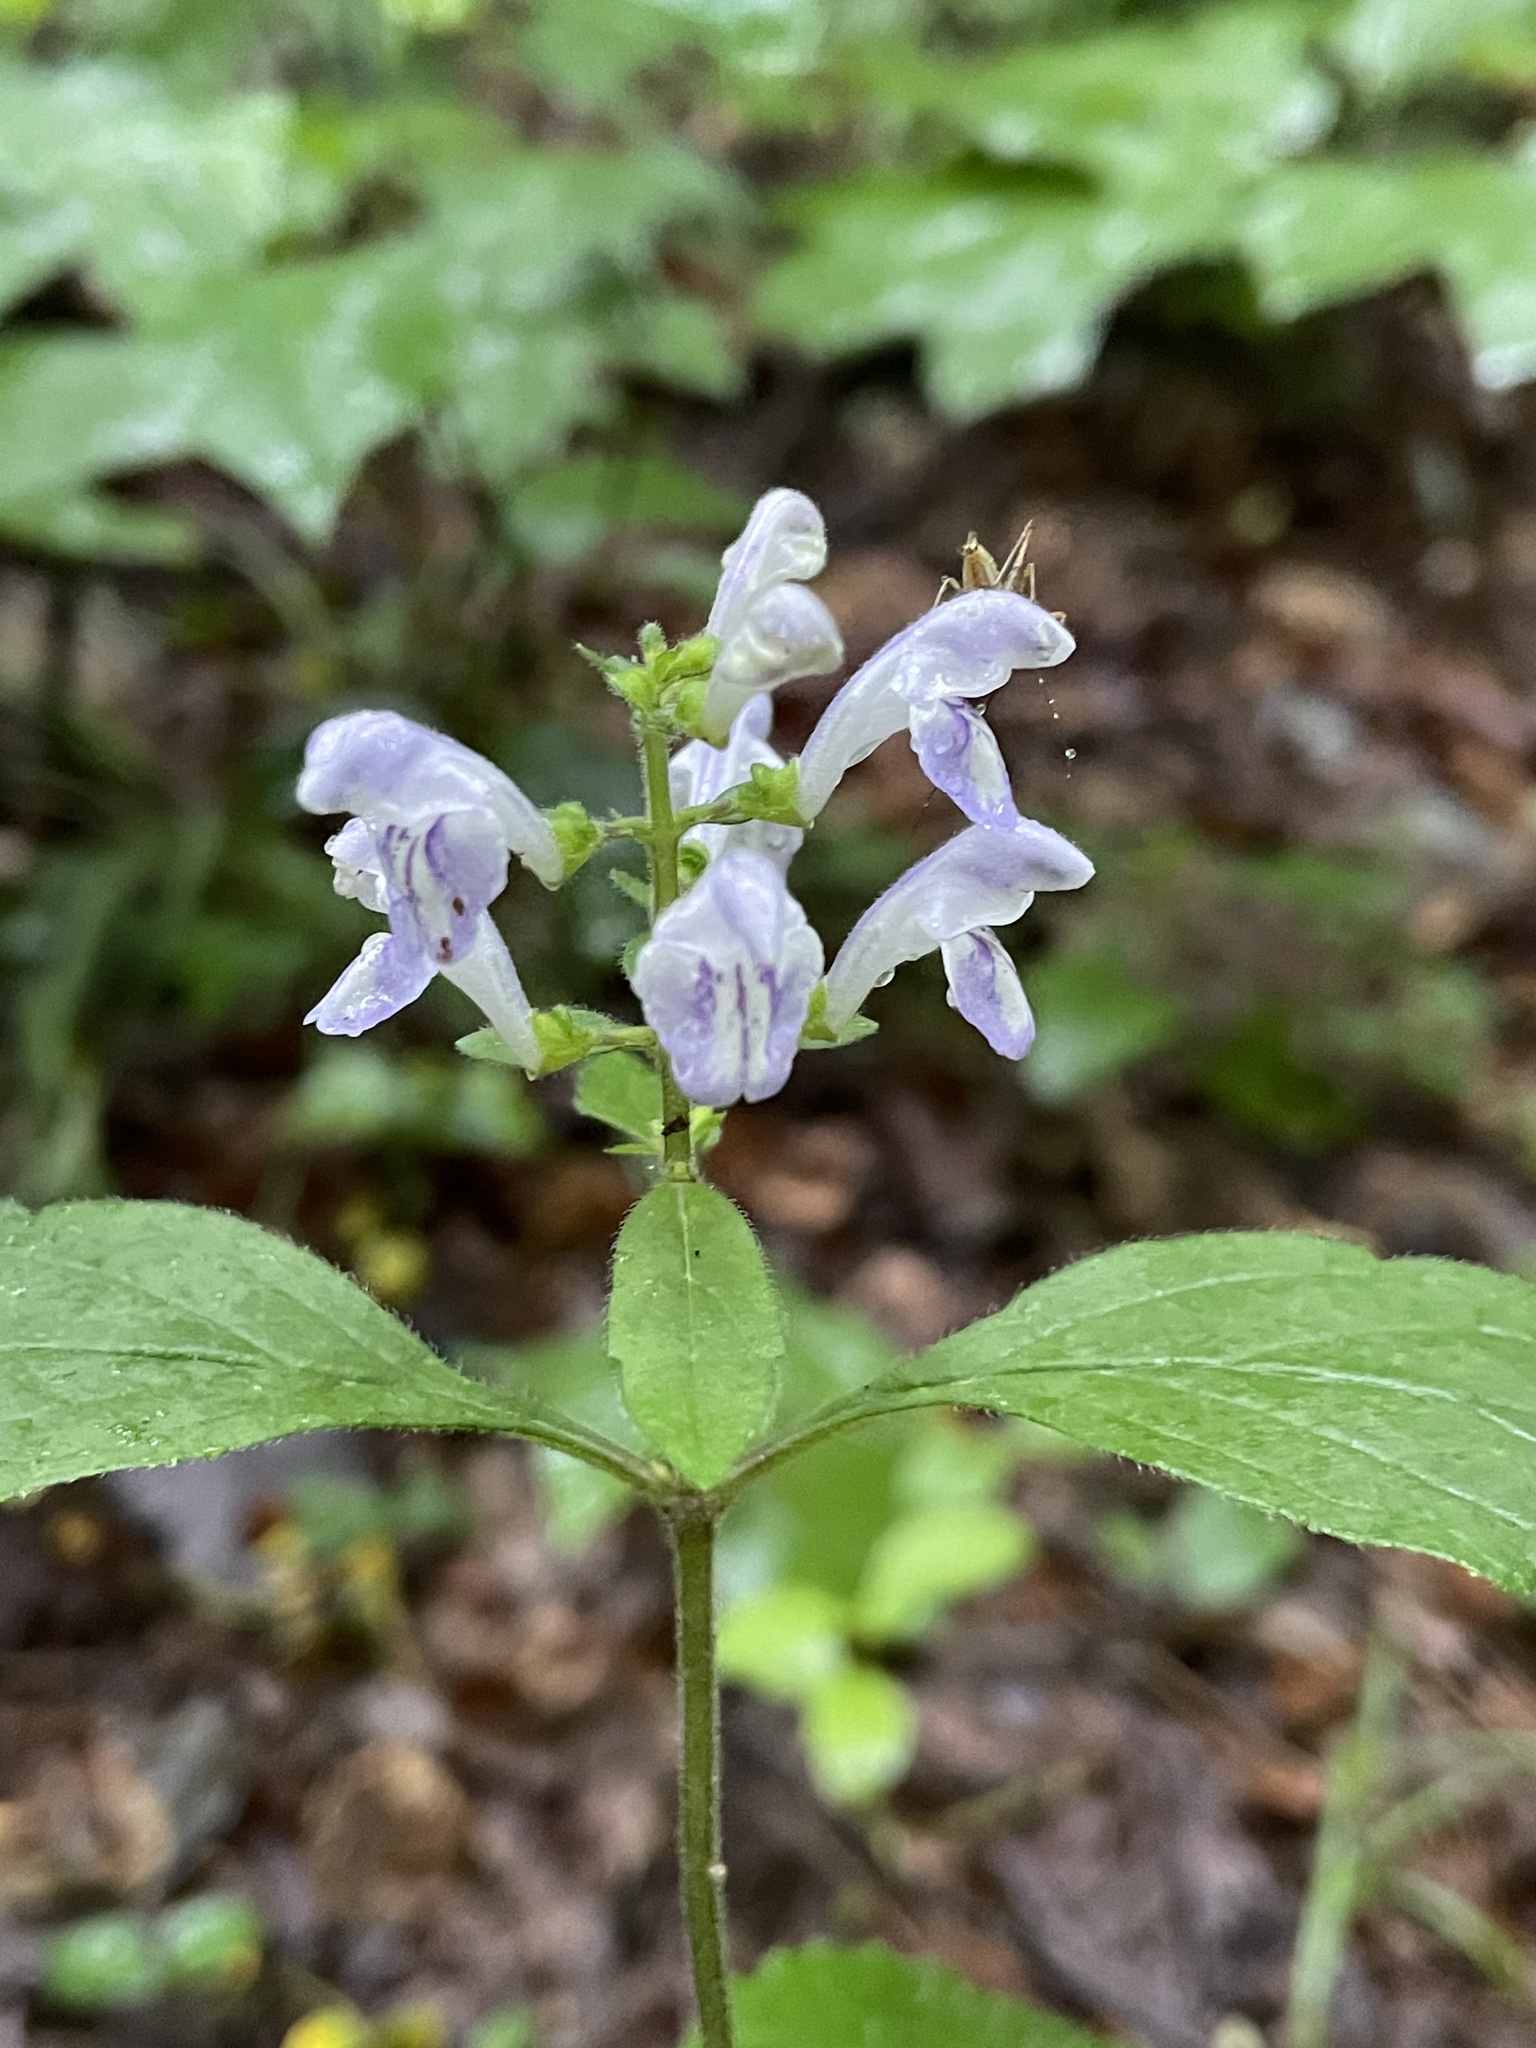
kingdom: Plantae
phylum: Tracheophyta
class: Magnoliopsida
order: Lamiales
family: Lamiaceae
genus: Scutellaria
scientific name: Scutellaria elliptica
